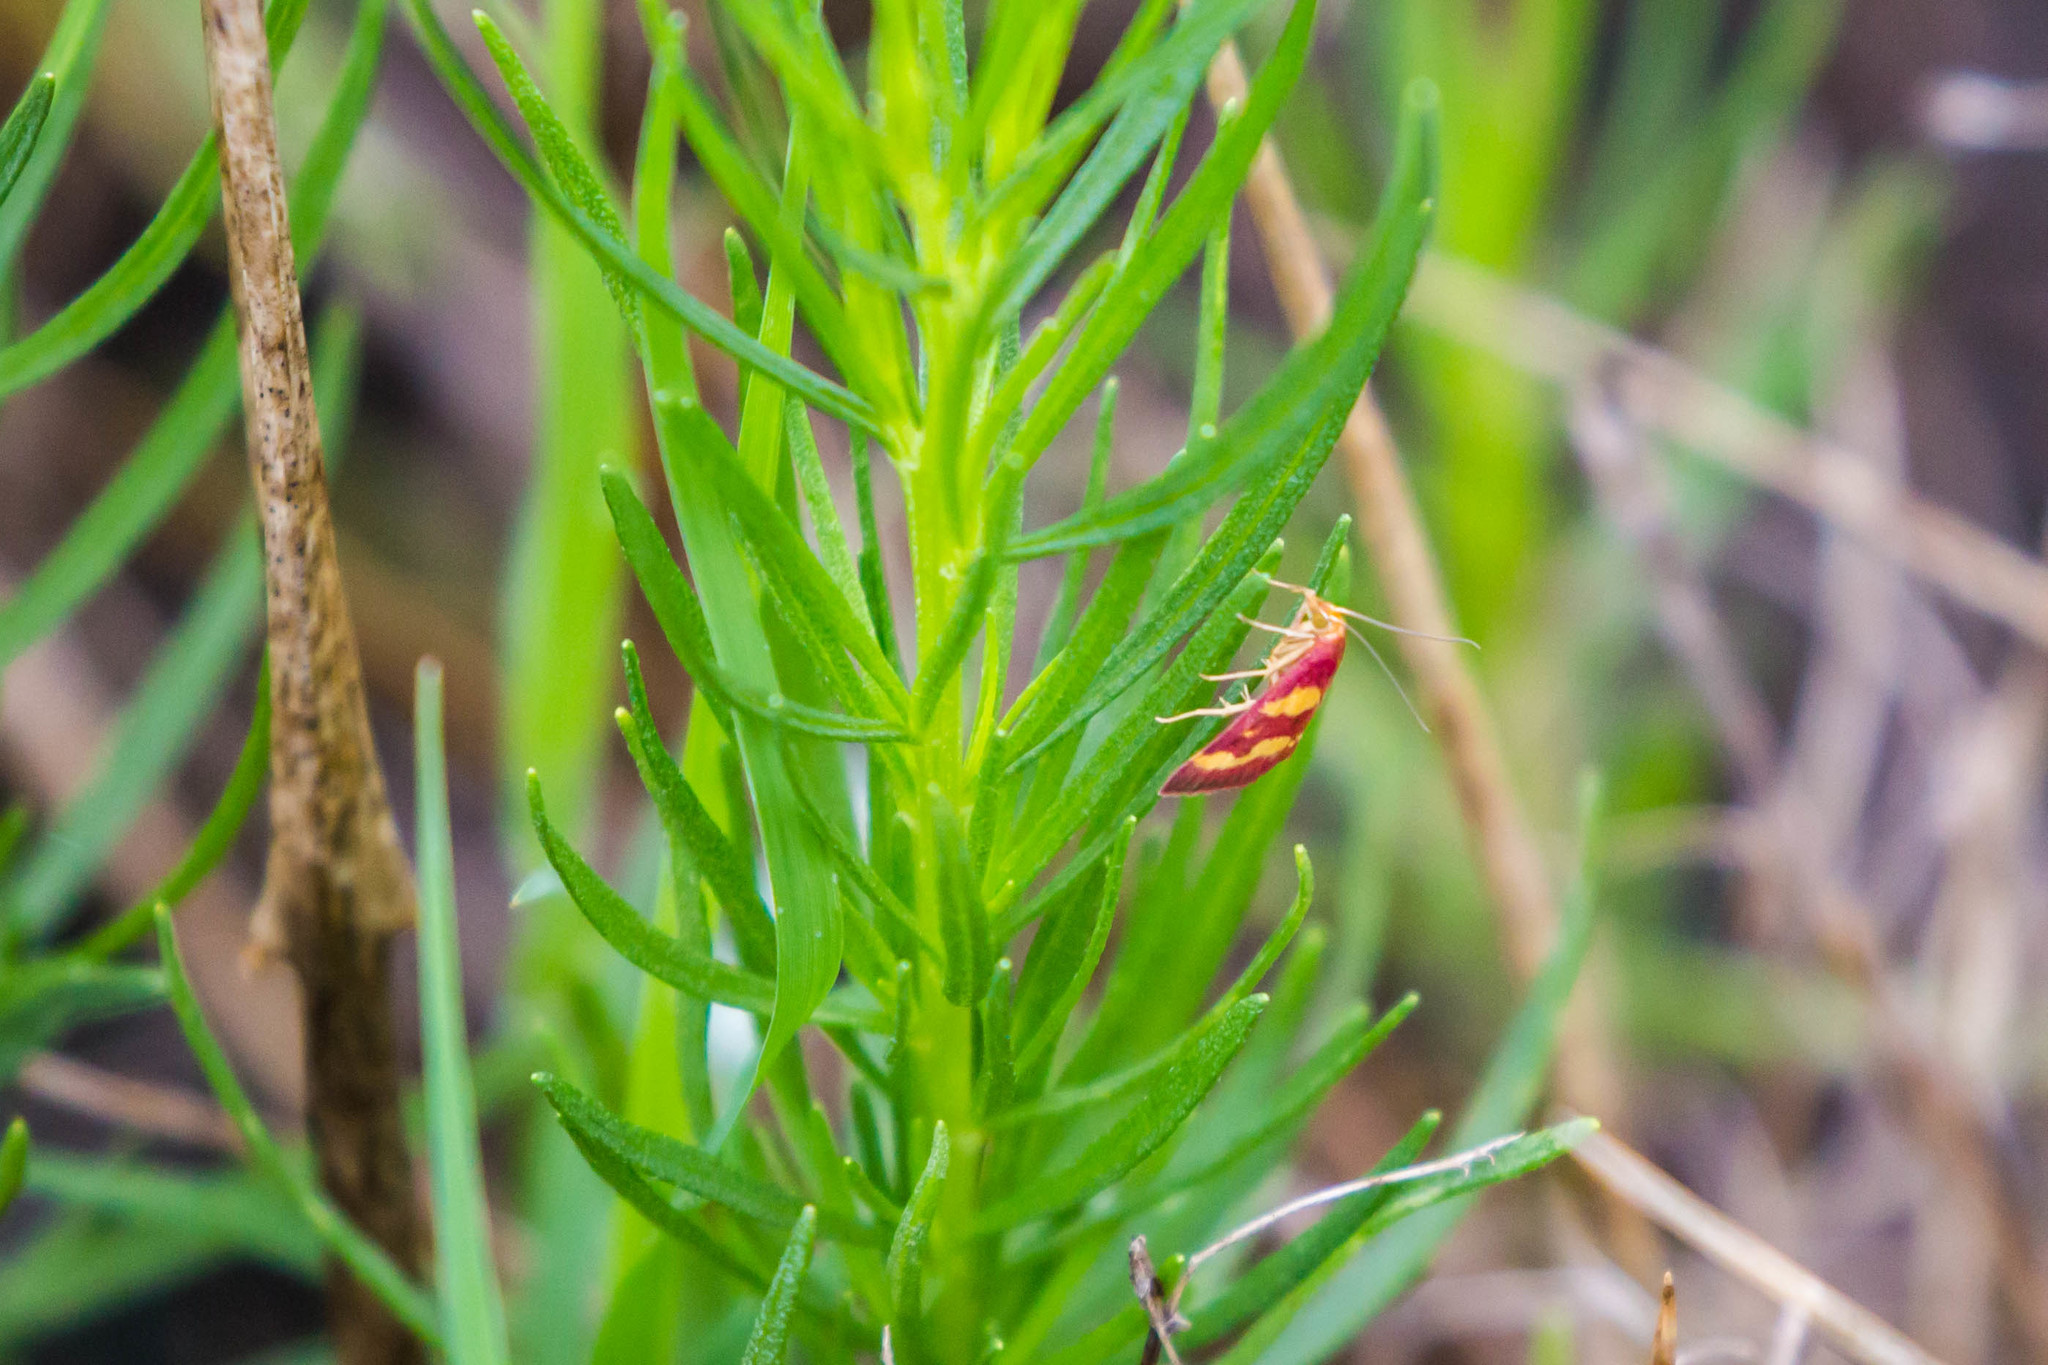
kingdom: Animalia
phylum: Arthropoda
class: Insecta
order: Lepidoptera
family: Crambidae
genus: Pyrausta
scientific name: Pyrausta tyralis
